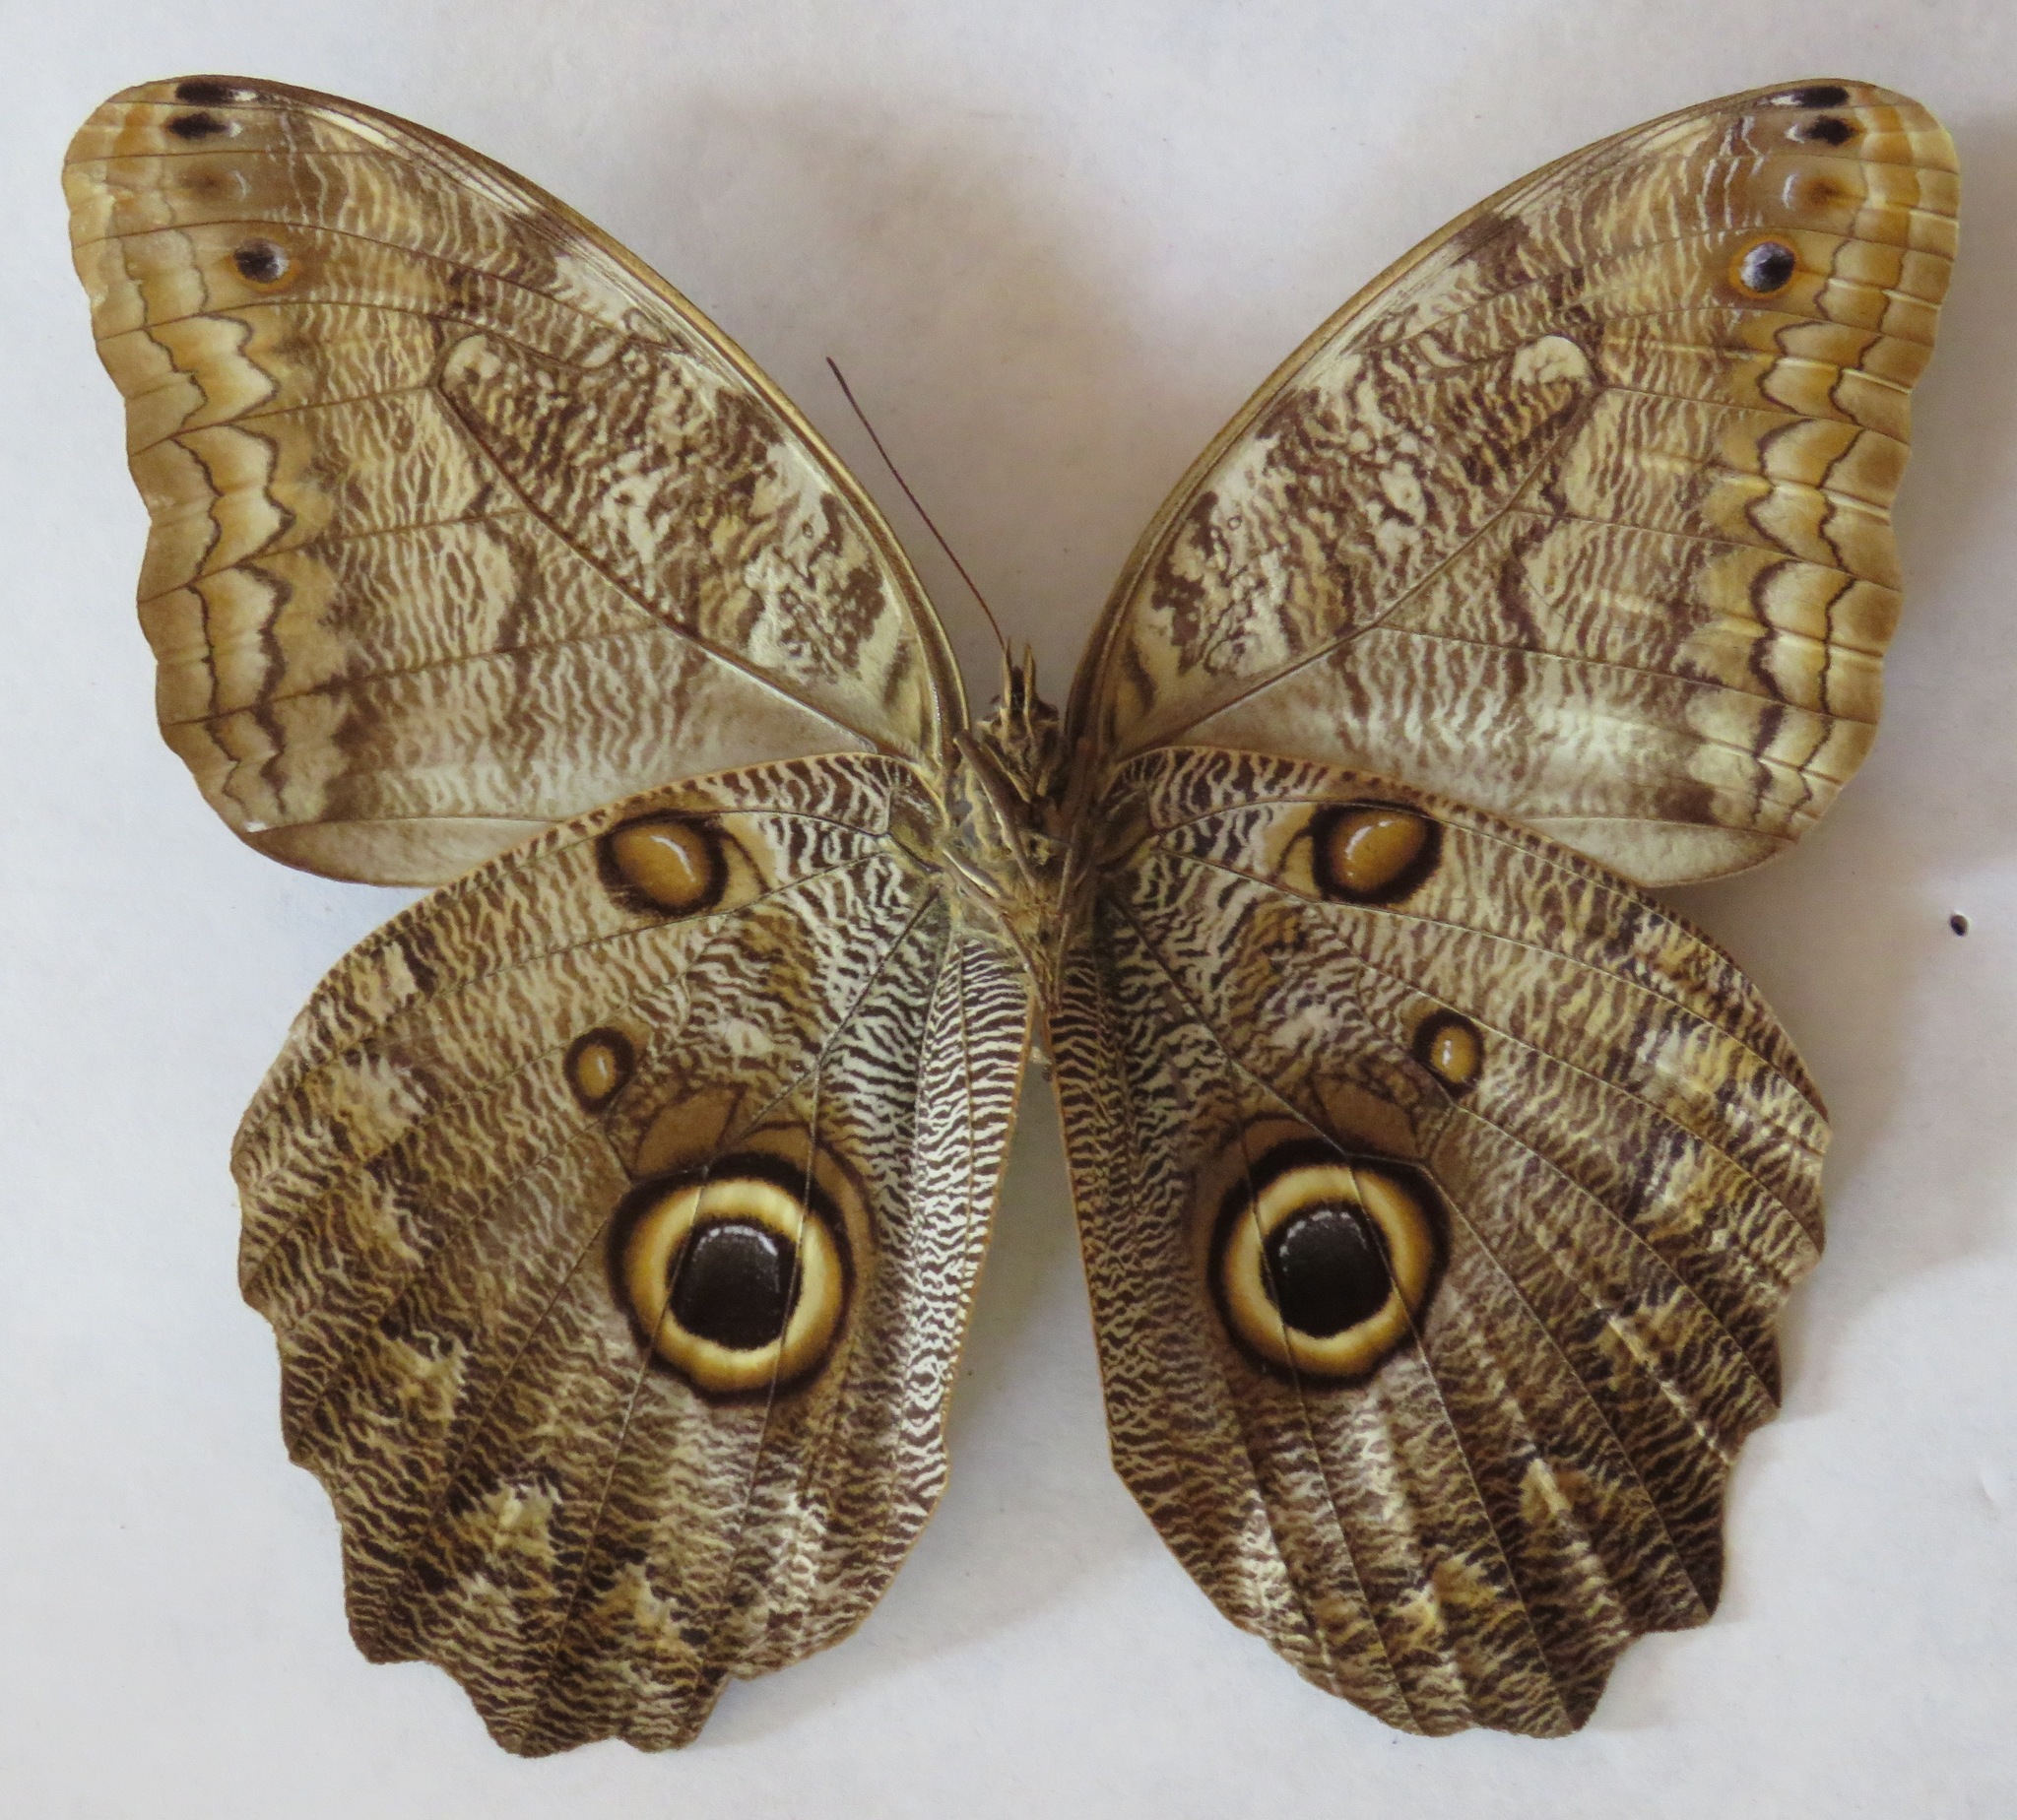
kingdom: Animalia
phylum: Arthropoda
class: Insecta
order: Lepidoptera
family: Nymphalidae
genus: Caligo
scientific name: Caligo brasiliensis
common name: Dark owl-butterfly
